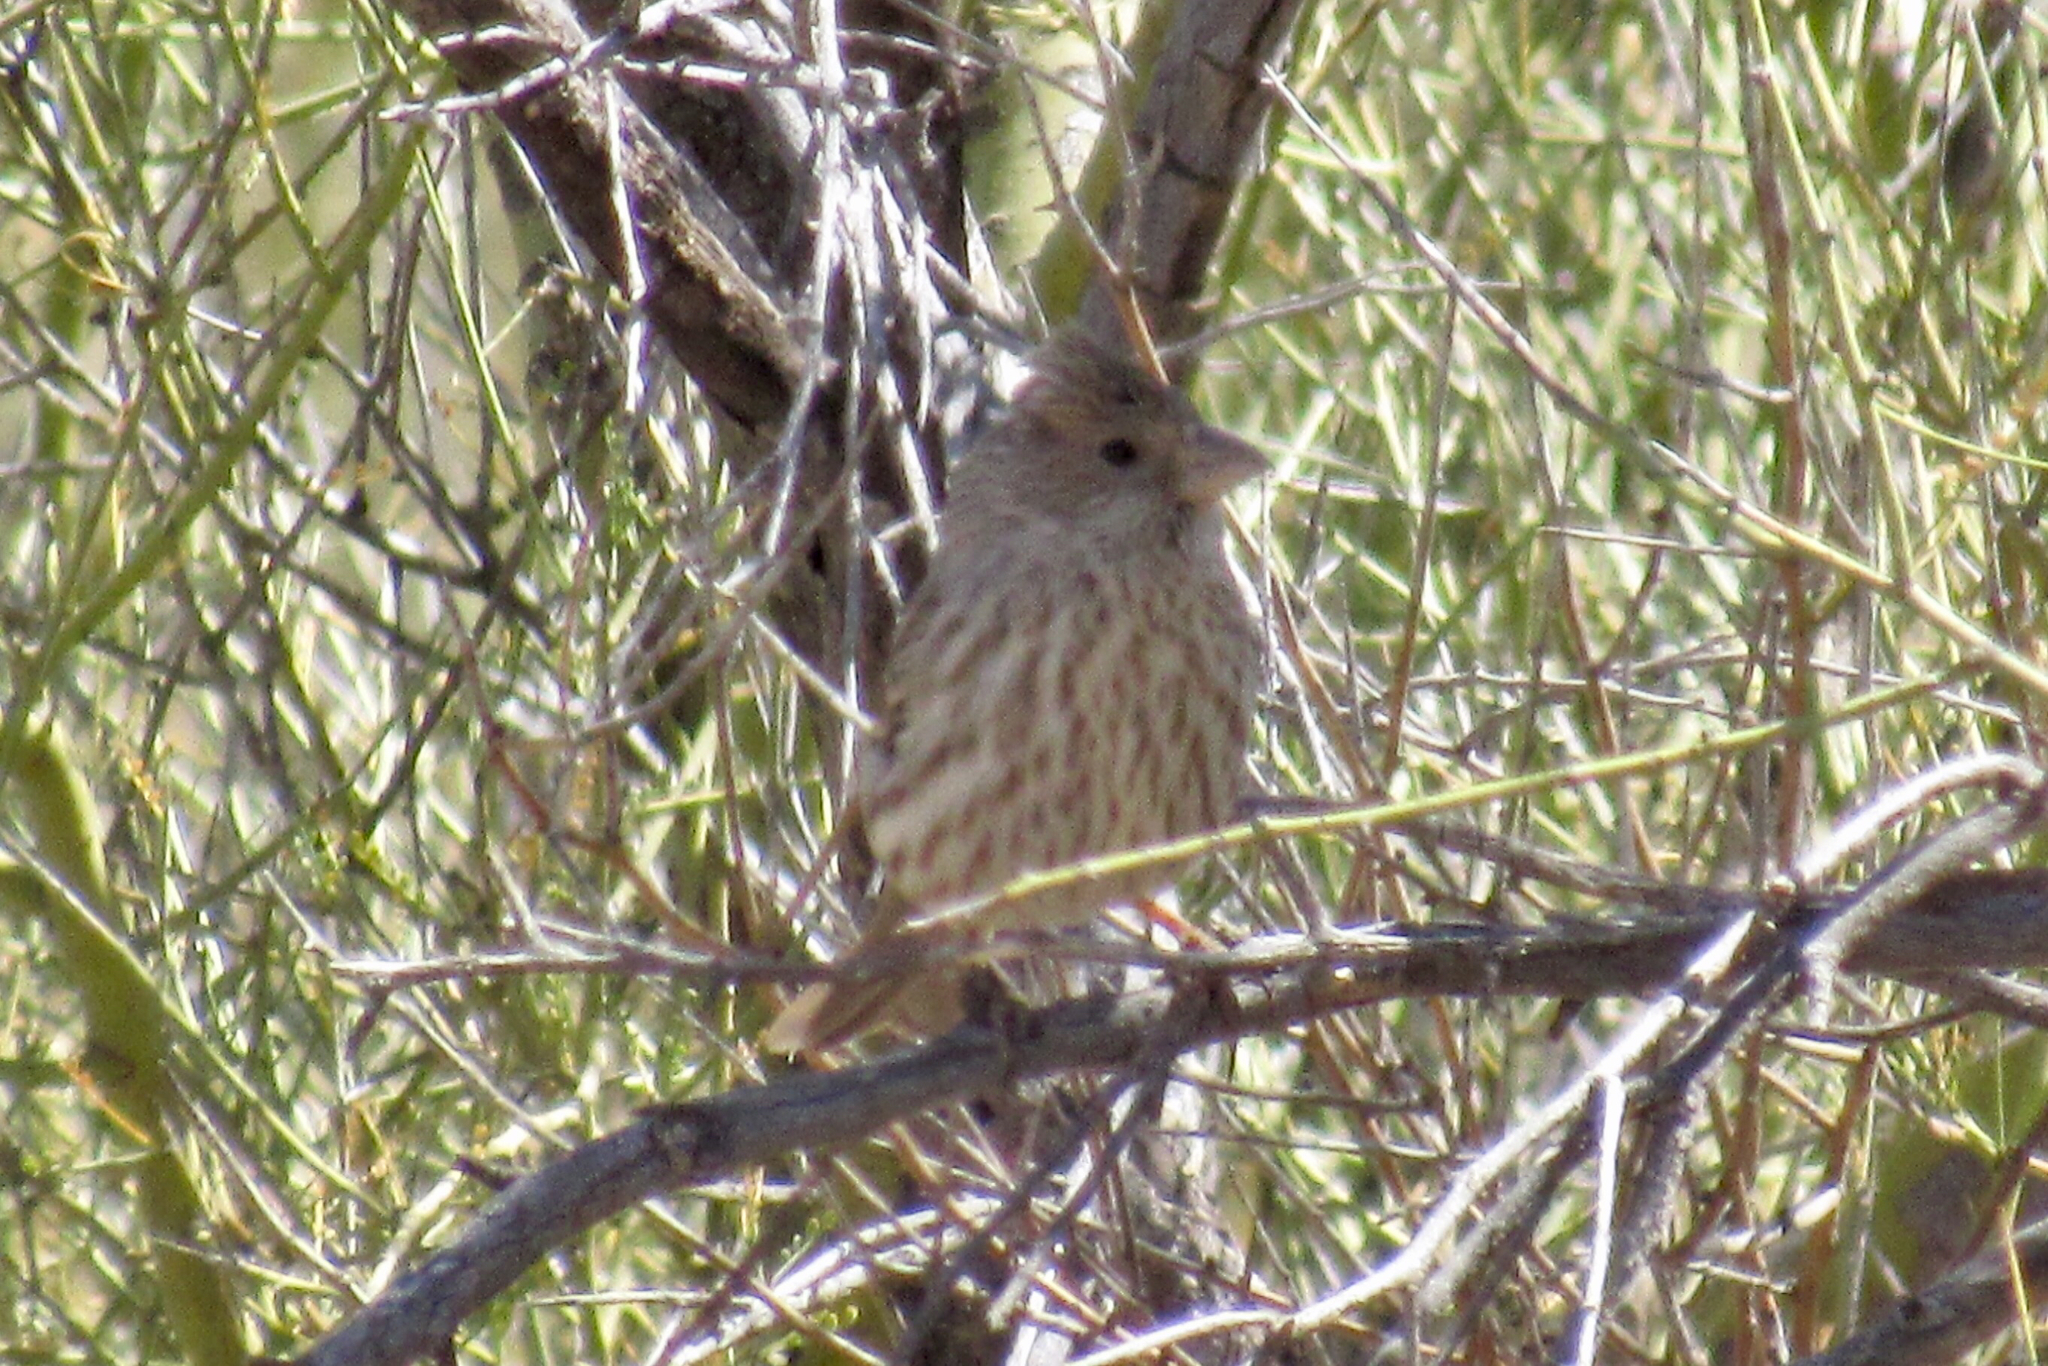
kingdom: Animalia
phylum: Chordata
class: Aves
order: Passeriformes
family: Fringillidae
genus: Haemorhous
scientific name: Haemorhous mexicanus
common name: House finch
